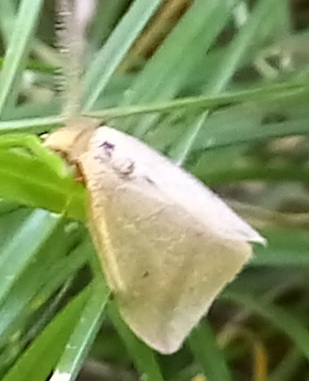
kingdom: Animalia
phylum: Arthropoda
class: Insecta
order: Lepidoptera
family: Geometridae
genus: Rhodometra
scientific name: Rhodometra sacraria
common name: Vestal
